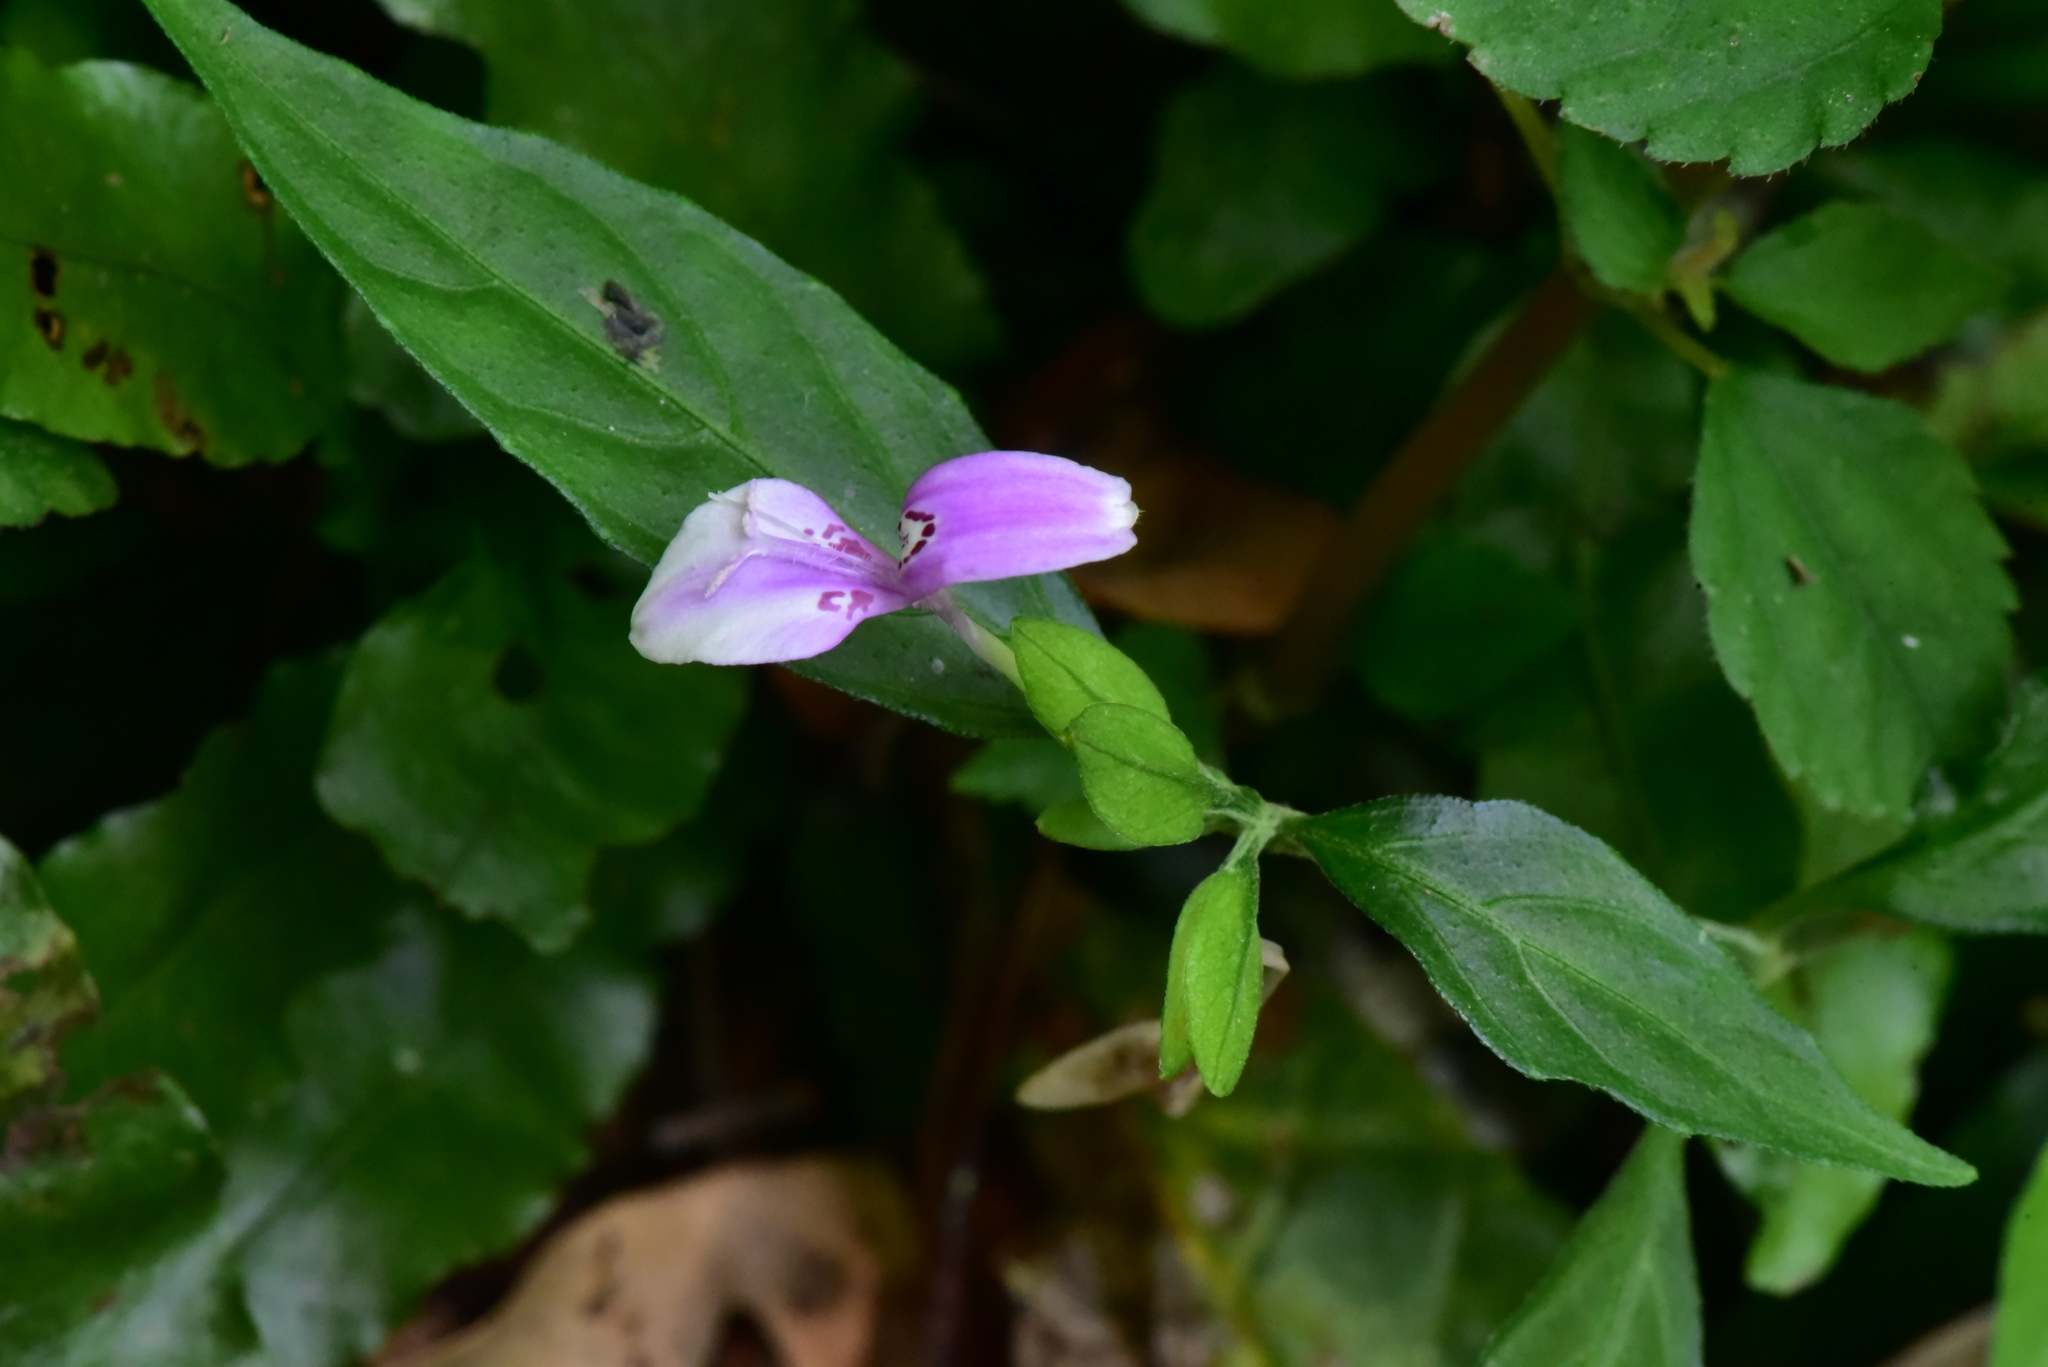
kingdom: Plantae
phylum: Tracheophyta
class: Magnoliopsida
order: Lamiales
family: Acanthaceae
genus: Dicliptera
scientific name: Dicliptera japonica
